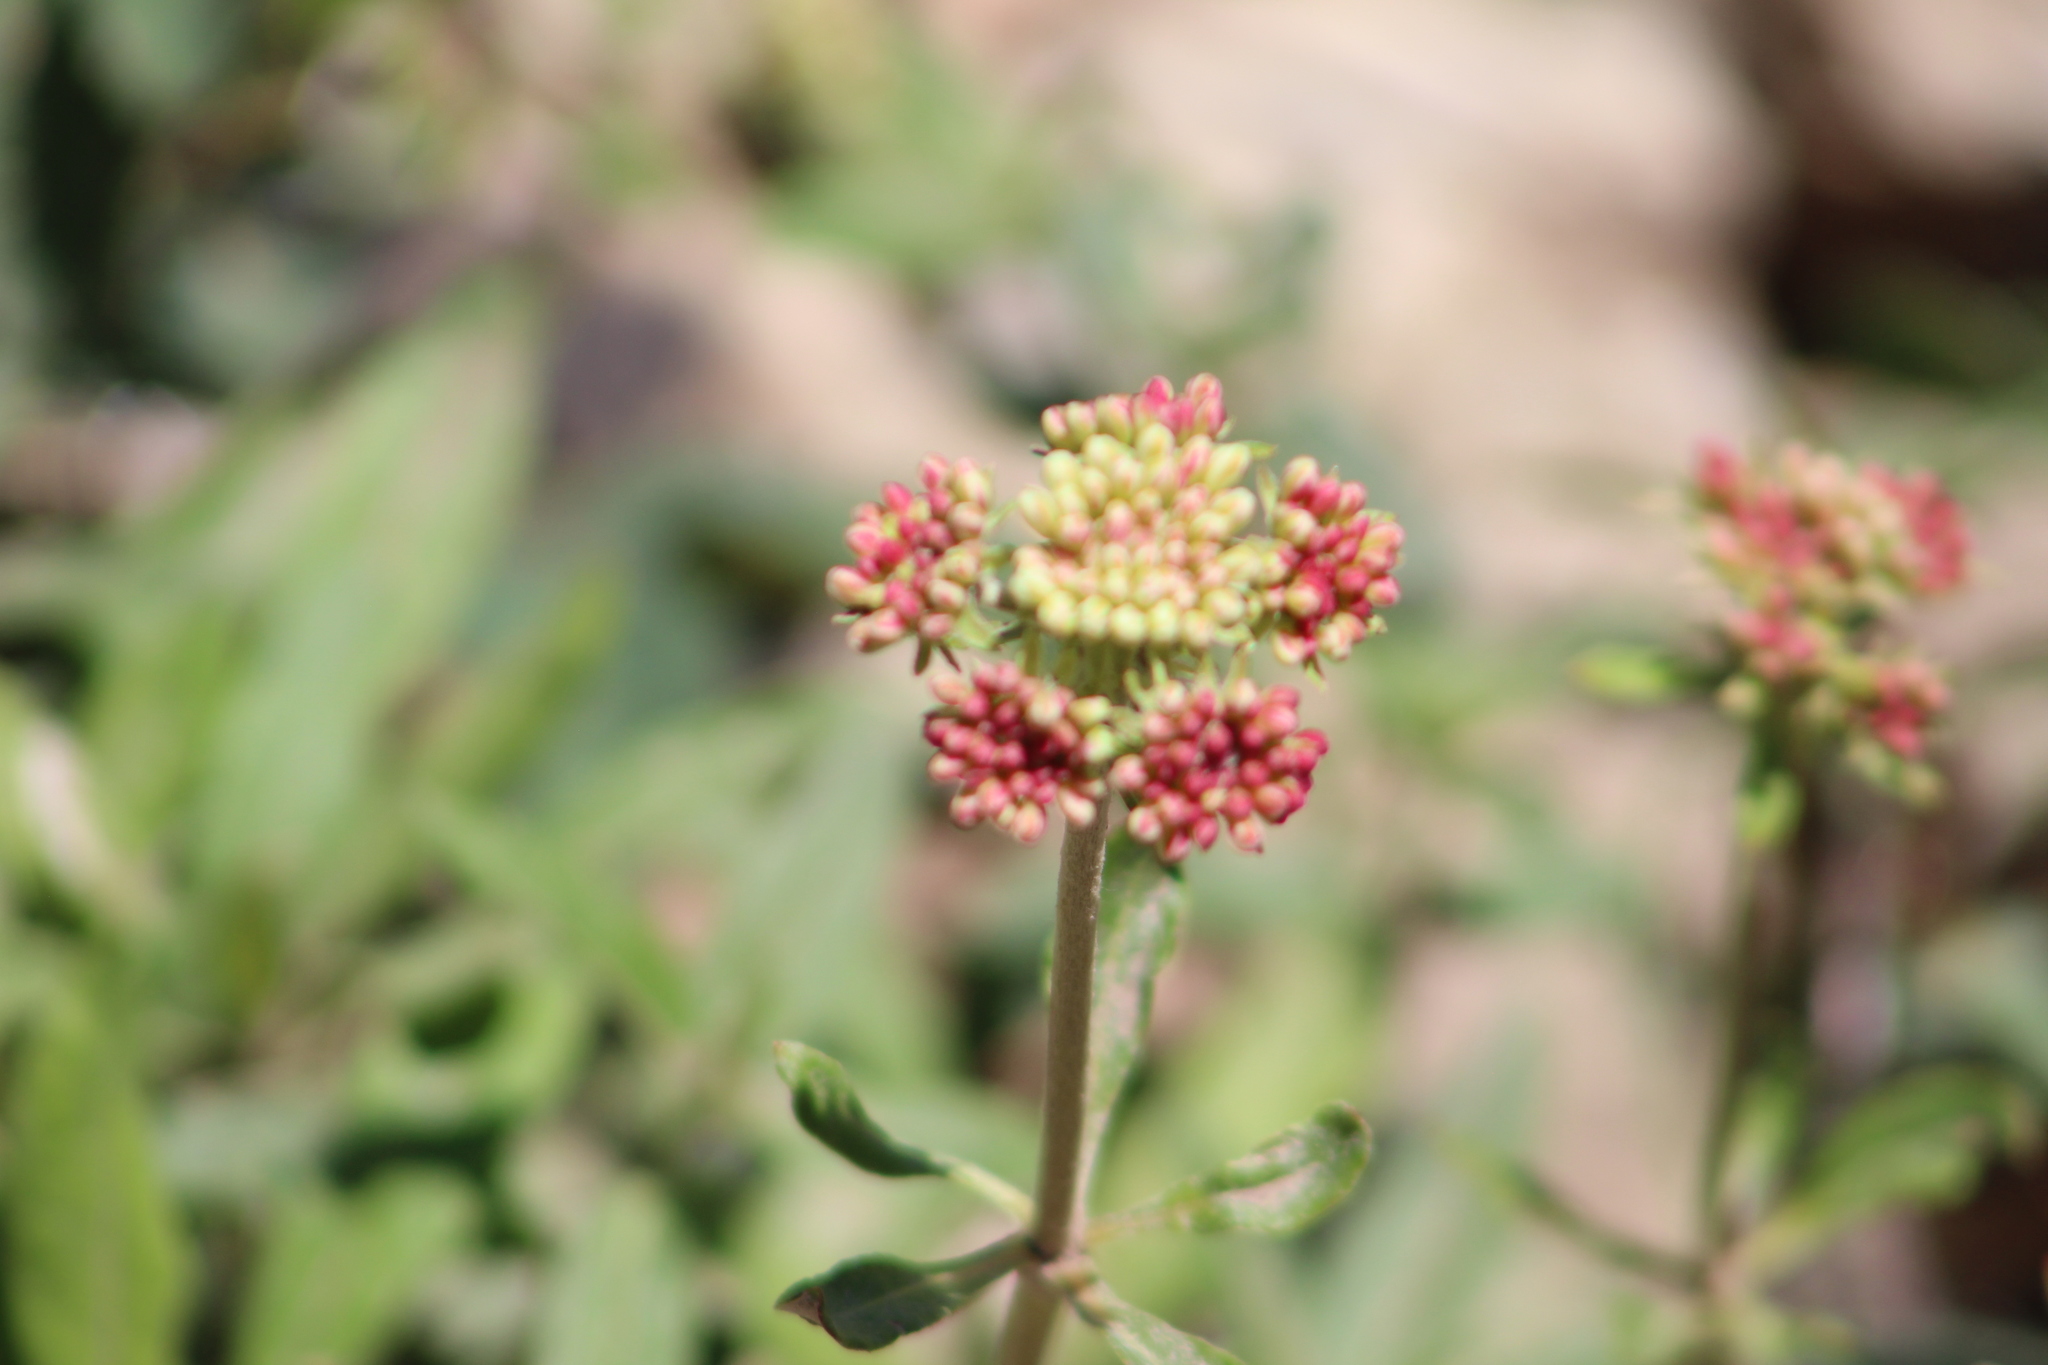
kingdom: Plantae
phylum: Tracheophyta
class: Magnoliopsida
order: Caryophyllales
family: Polygonaceae
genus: Eriogonum
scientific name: Eriogonum heracleoides
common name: Wyeth's buckwheat
